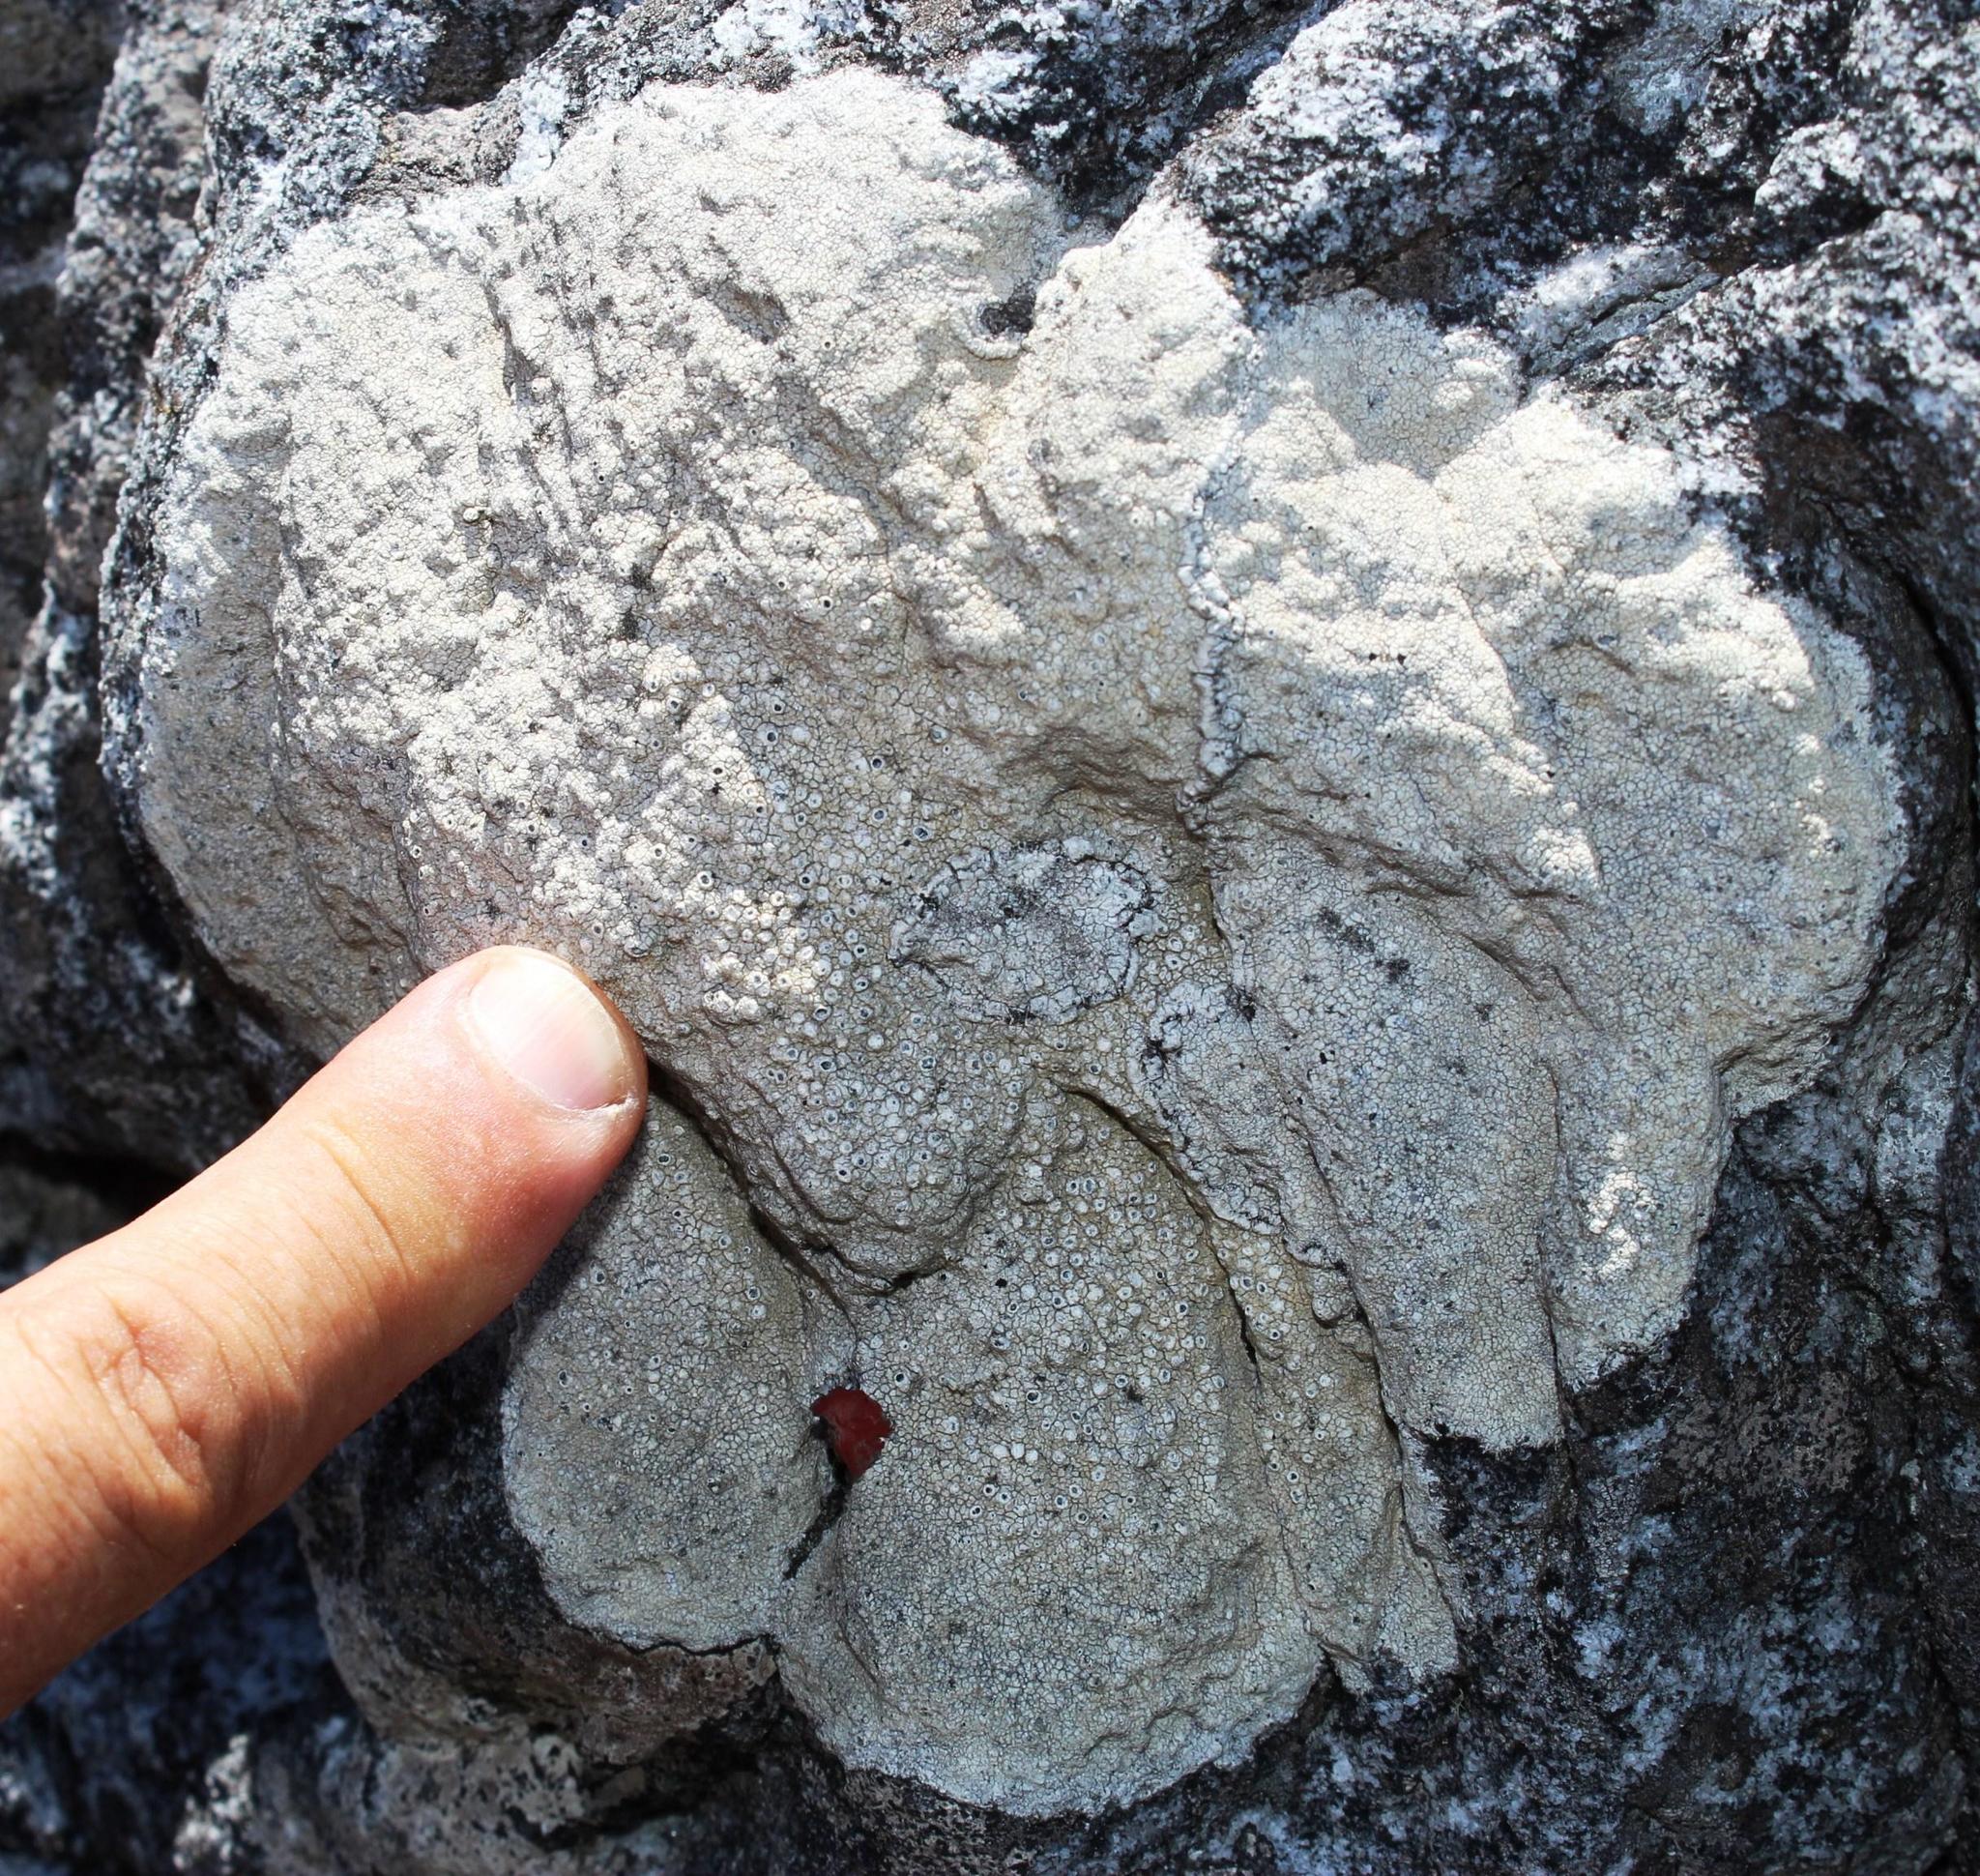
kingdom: Fungi
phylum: Ascomycota
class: Lecanoromycetes
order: Pertusariales
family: Ochrolechiaceae
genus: Ochrolechia
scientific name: Ochrolechia parella
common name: Crab's eye lichen
